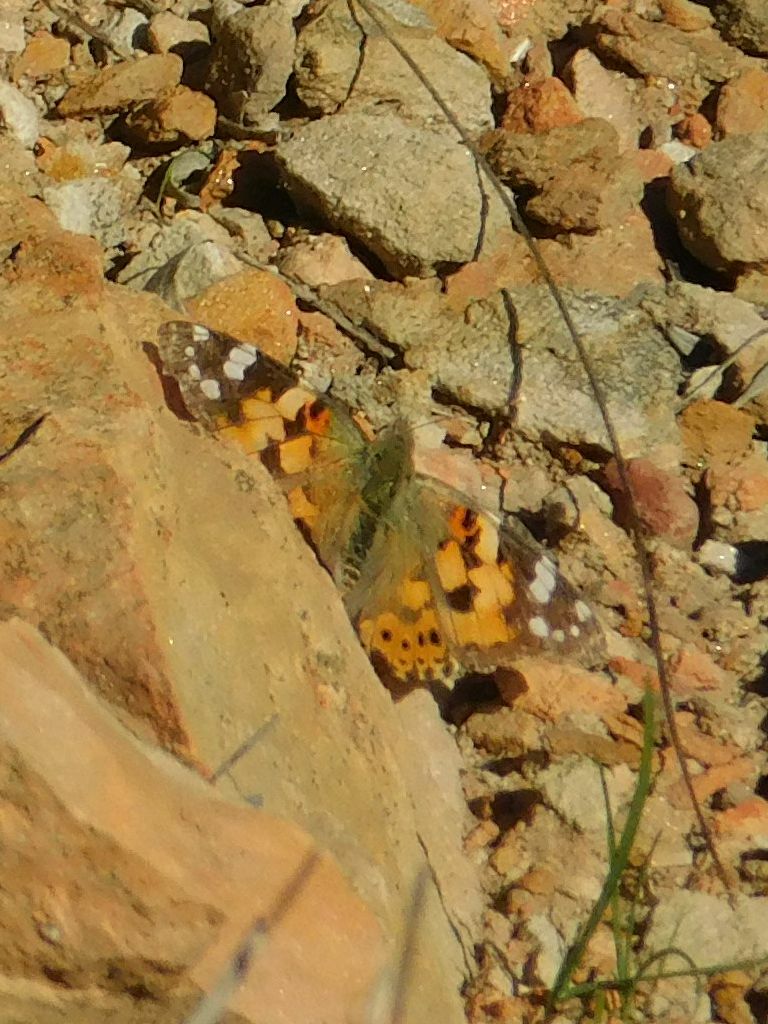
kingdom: Animalia
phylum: Arthropoda
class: Insecta
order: Lepidoptera
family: Nymphalidae
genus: Vanessa
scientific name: Vanessa cardui
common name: Painted lady
